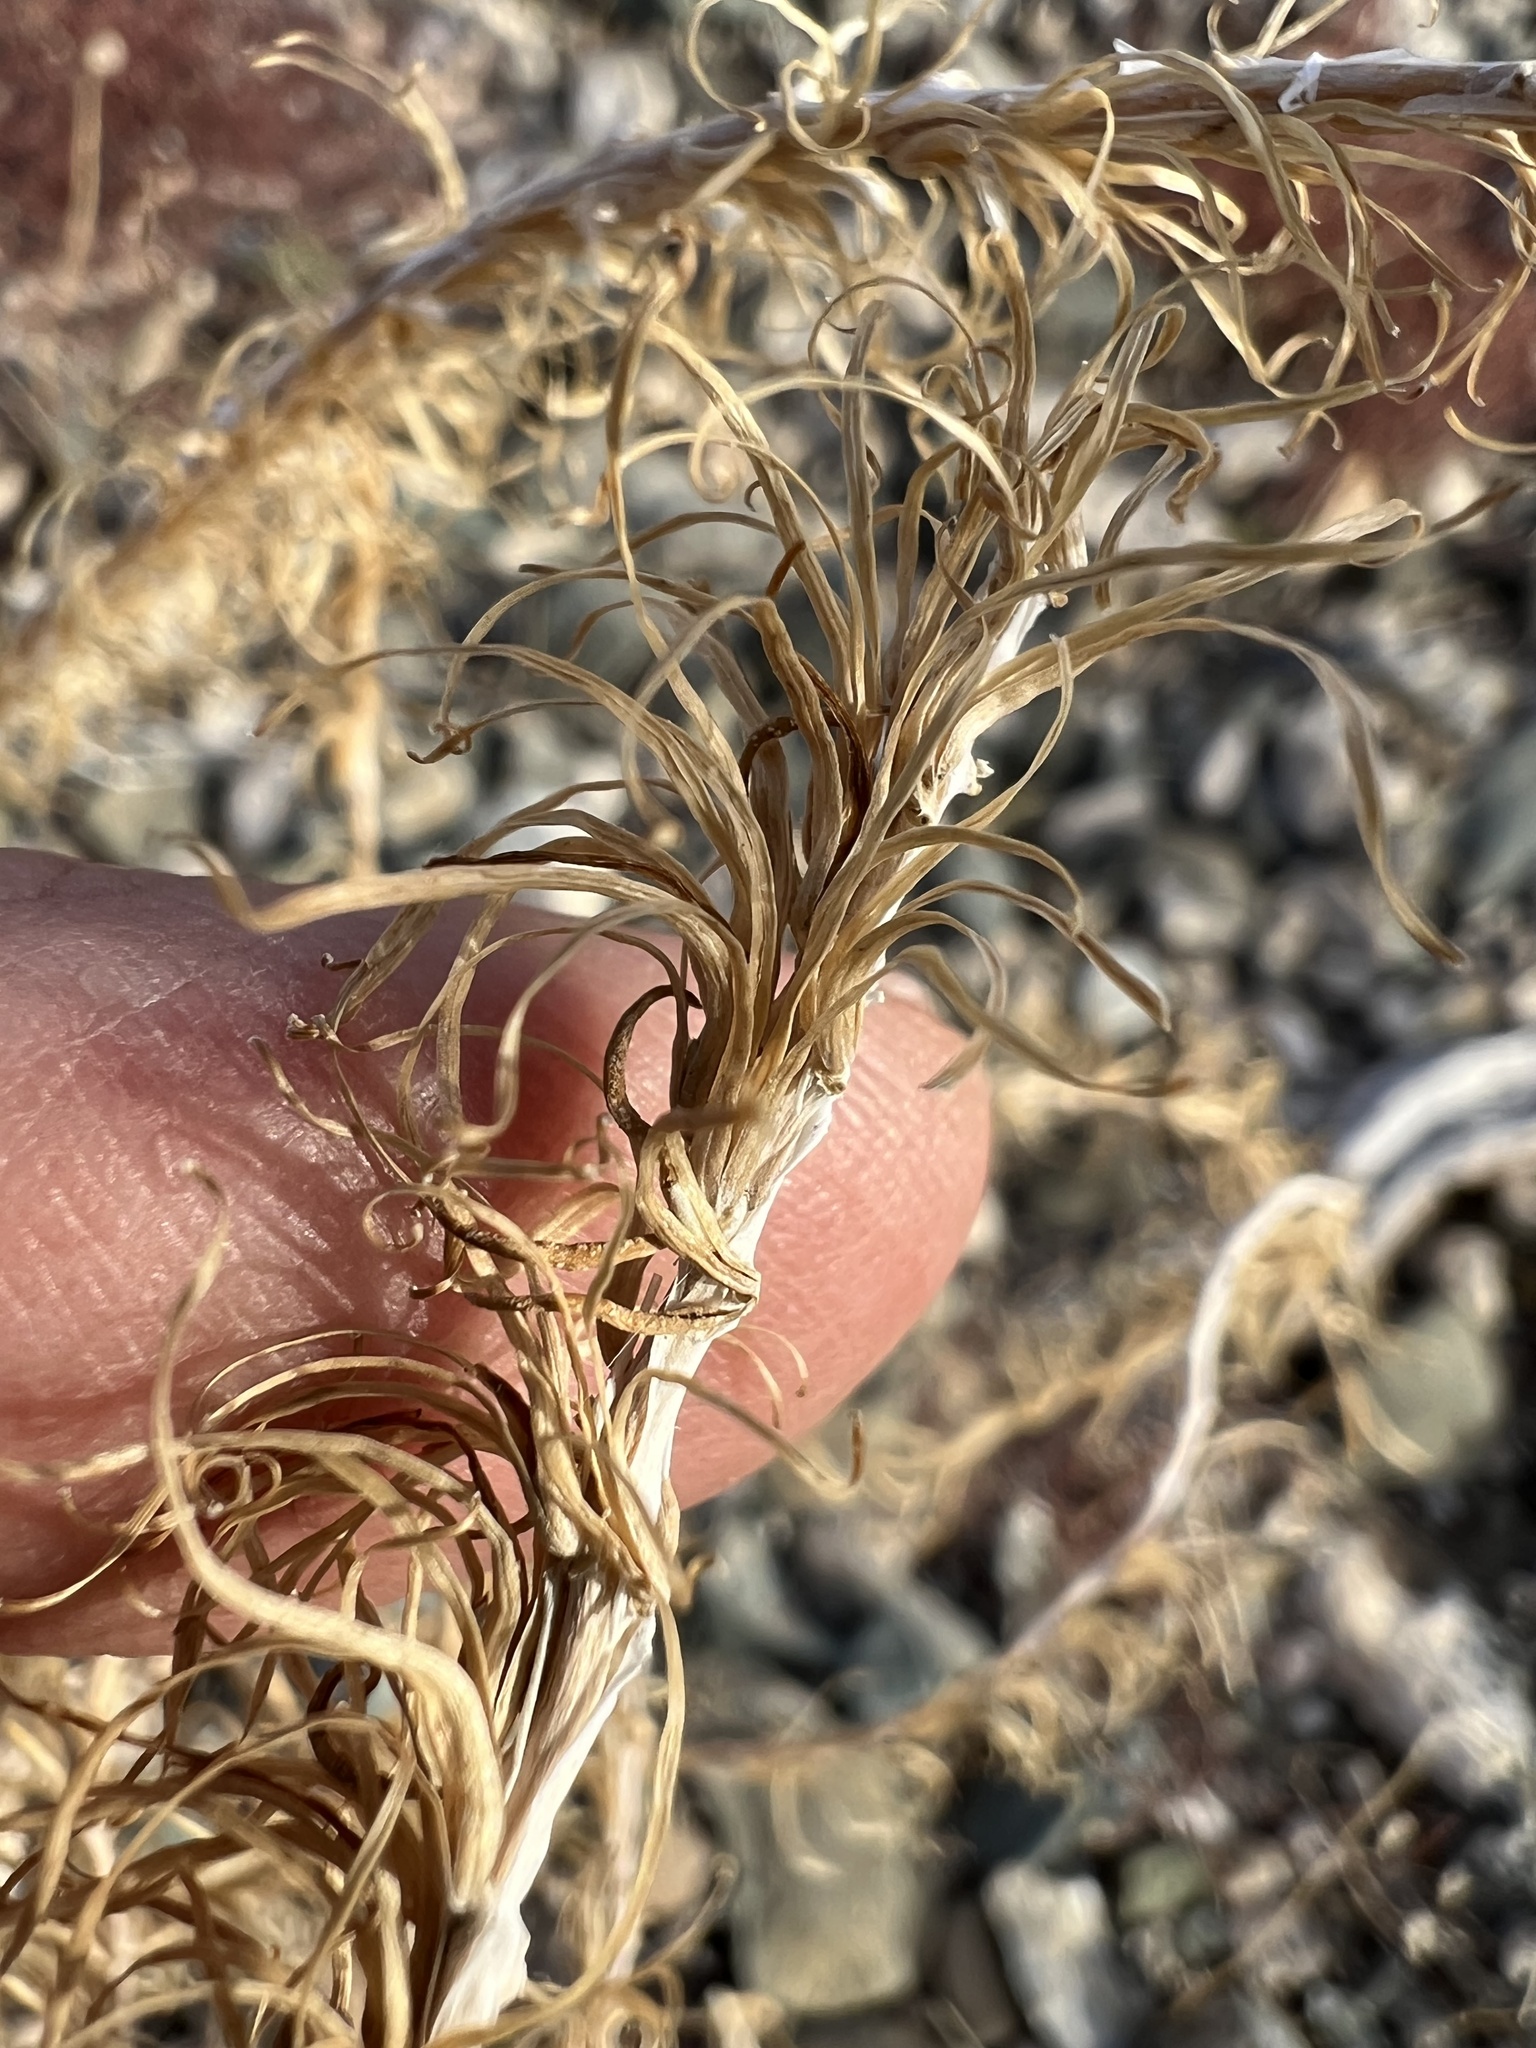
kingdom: Plantae
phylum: Tracheophyta
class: Magnoliopsida
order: Myrtales
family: Onagraceae
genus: Eremothera
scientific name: Eremothera boothii
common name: Booth's evening primrose
